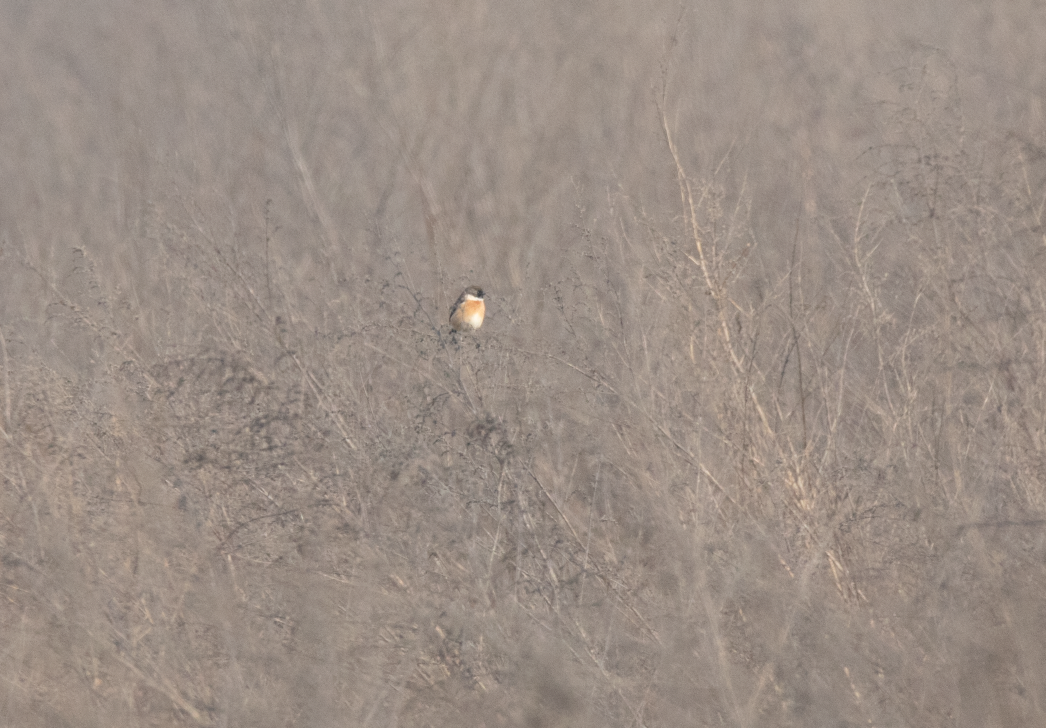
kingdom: Animalia
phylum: Chordata
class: Aves
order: Passeriformes
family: Muscicapidae
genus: Saxicola
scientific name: Saxicola rubicola
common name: European stonechat
